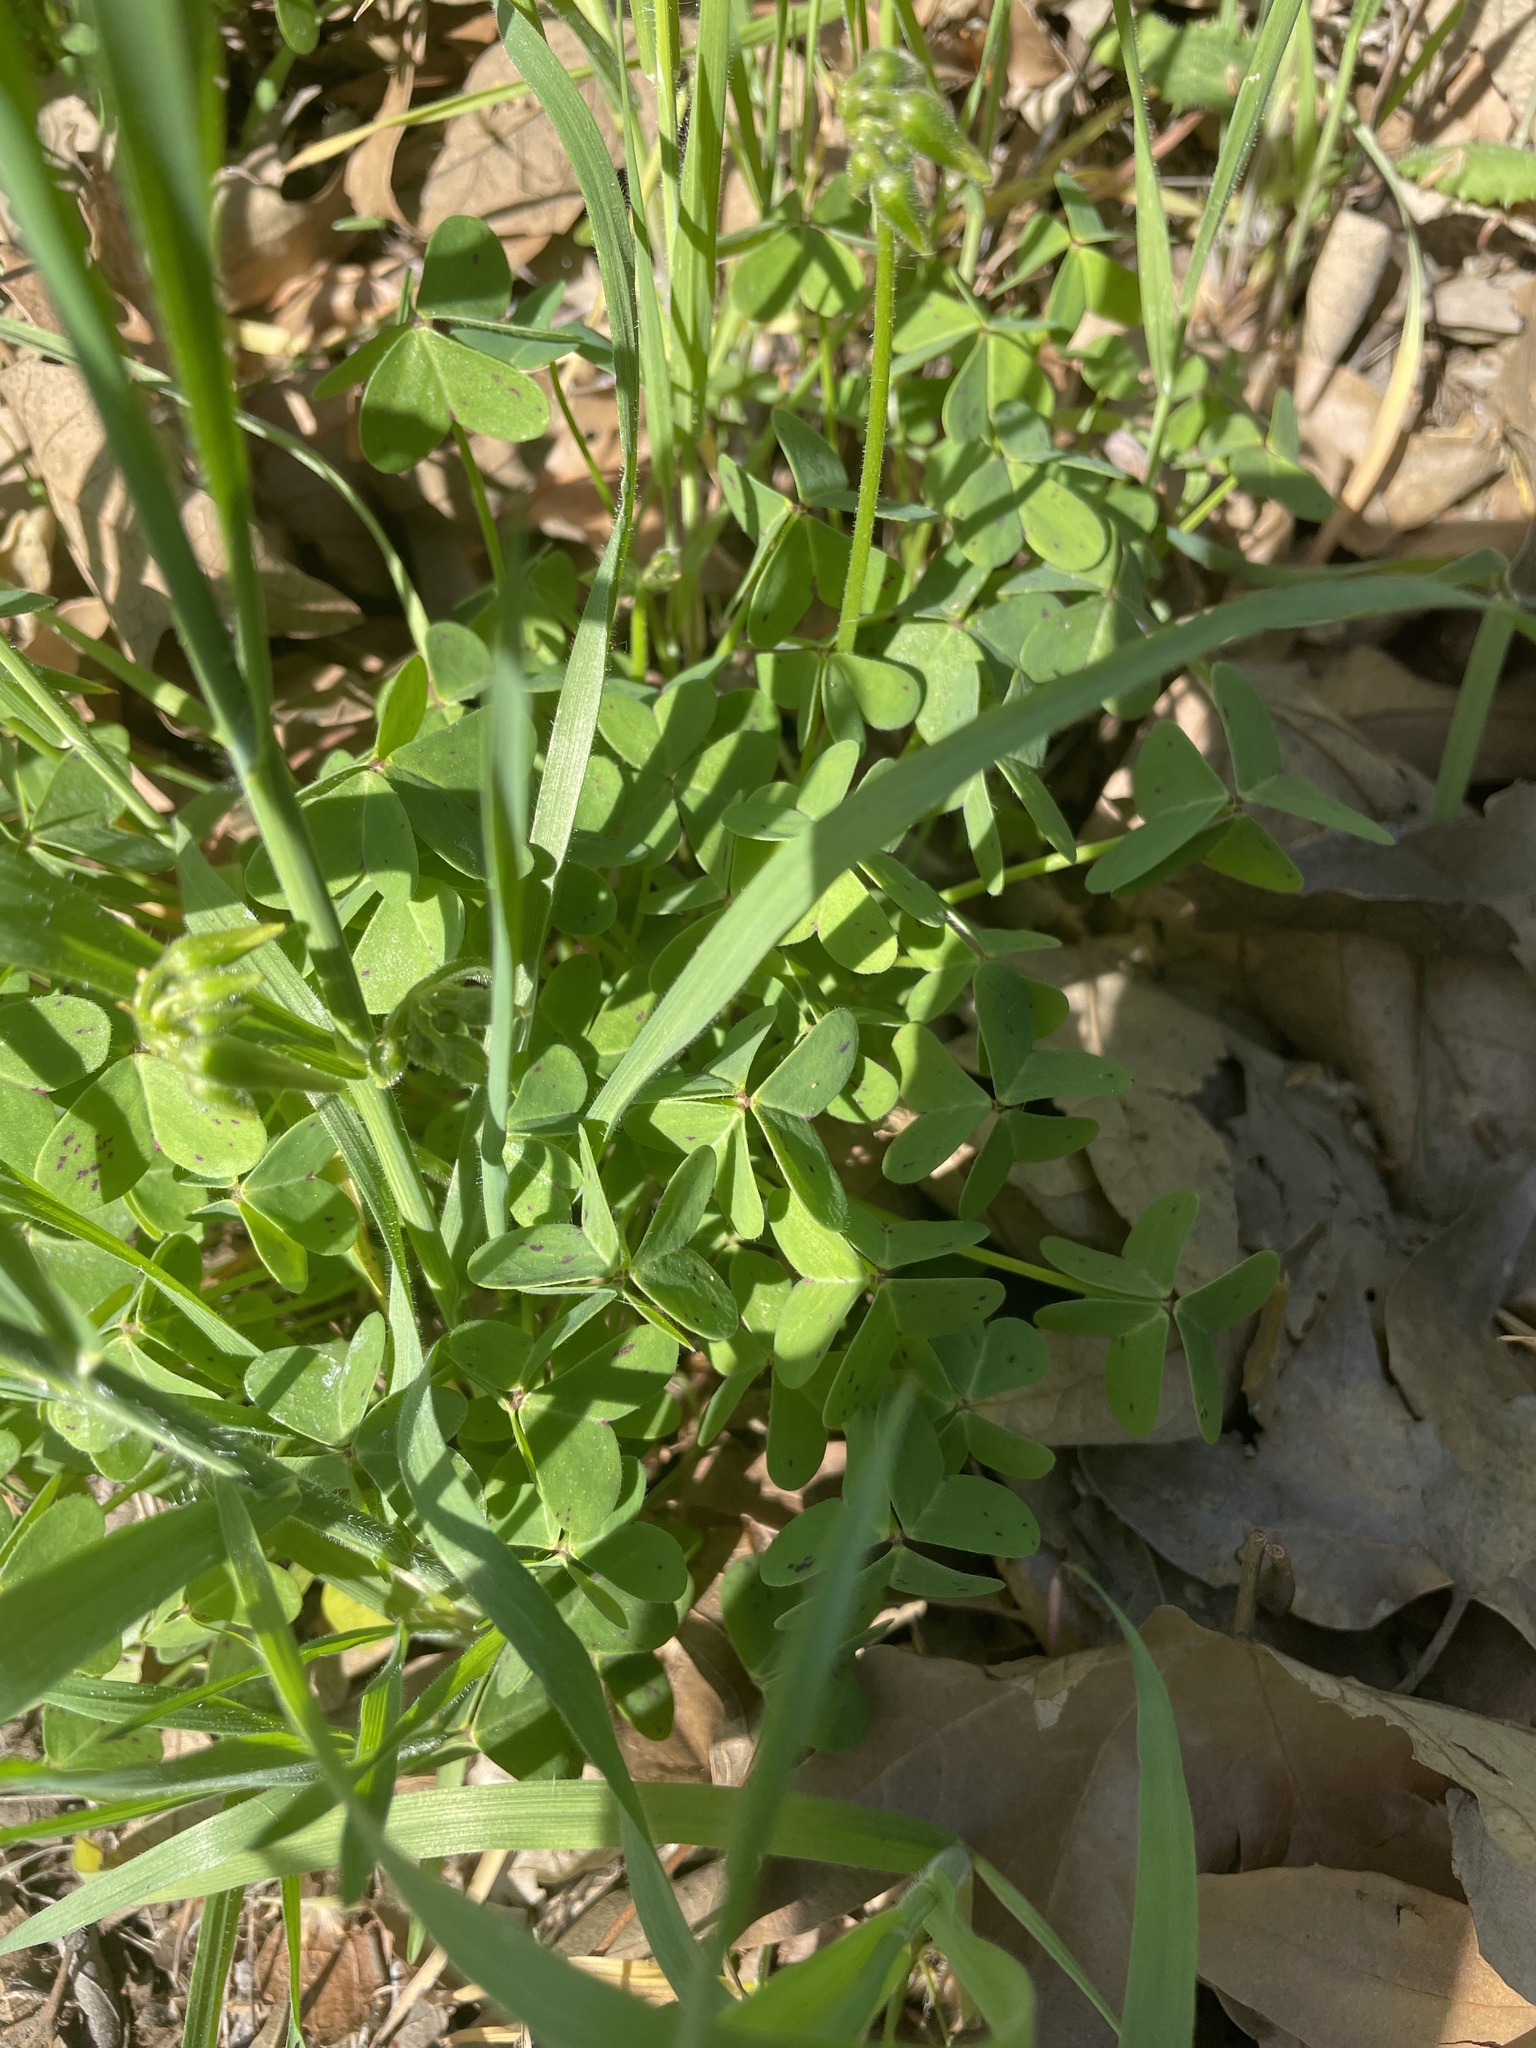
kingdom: Plantae
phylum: Tracheophyta
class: Magnoliopsida
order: Oxalidales
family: Oxalidaceae
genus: Oxalis
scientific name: Oxalis pes-caprae
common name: Bermuda-buttercup
